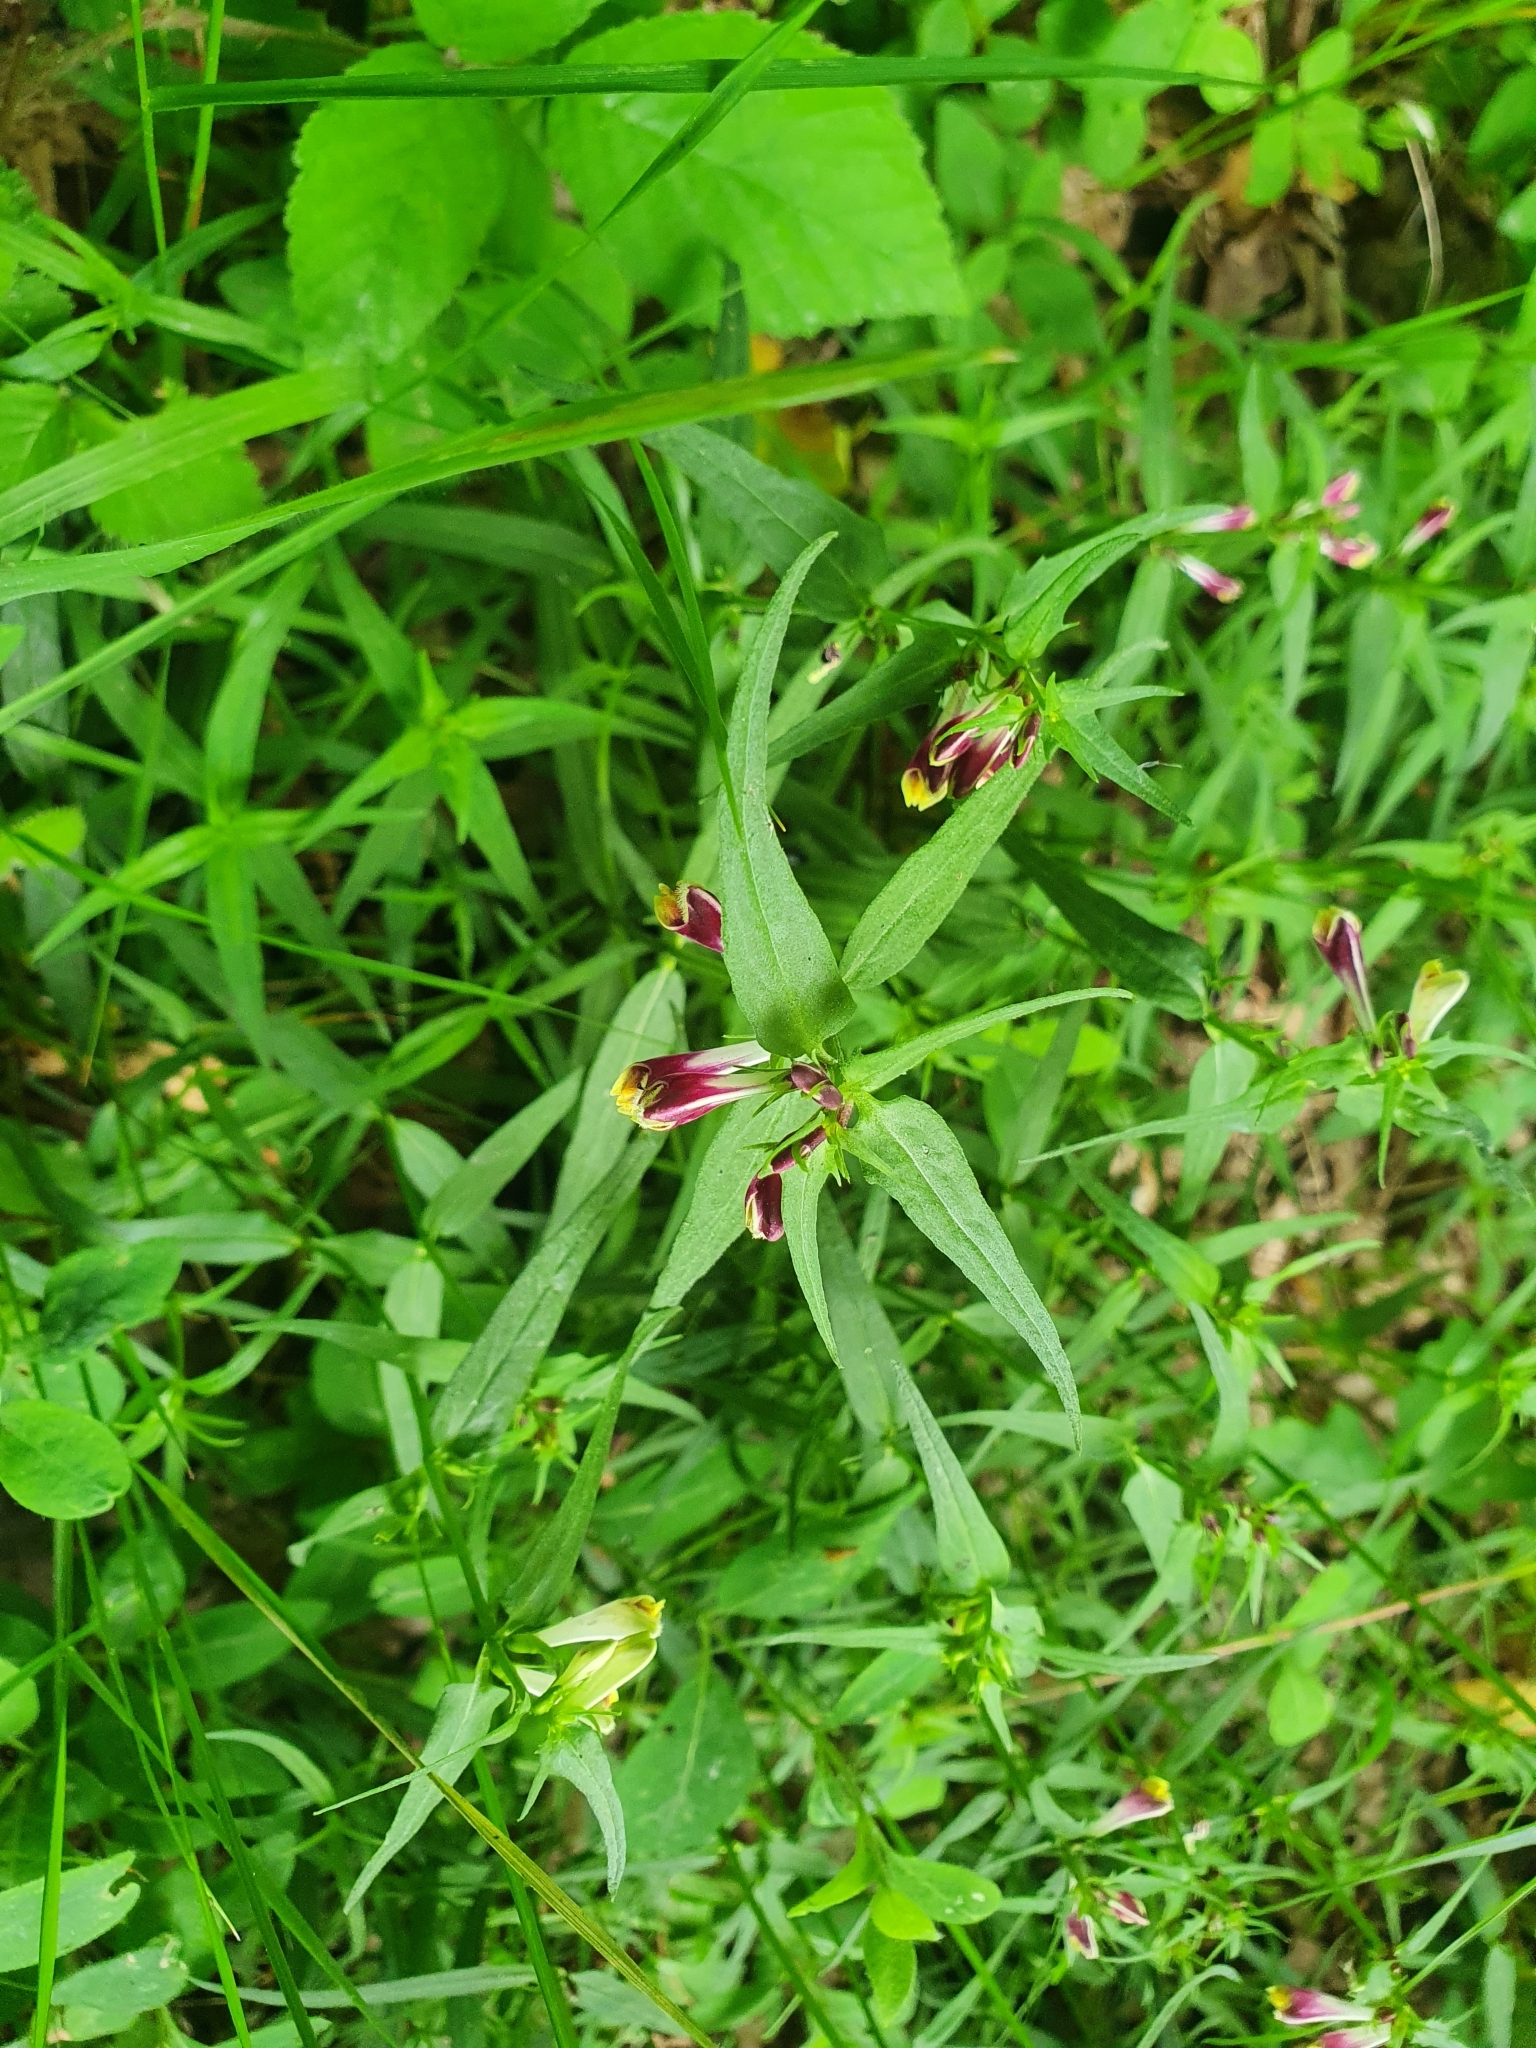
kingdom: Plantae
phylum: Tracheophyta
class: Magnoliopsida
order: Lamiales
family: Orobanchaceae
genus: Melampyrum
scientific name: Melampyrum pratense
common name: Common cow-wheat
